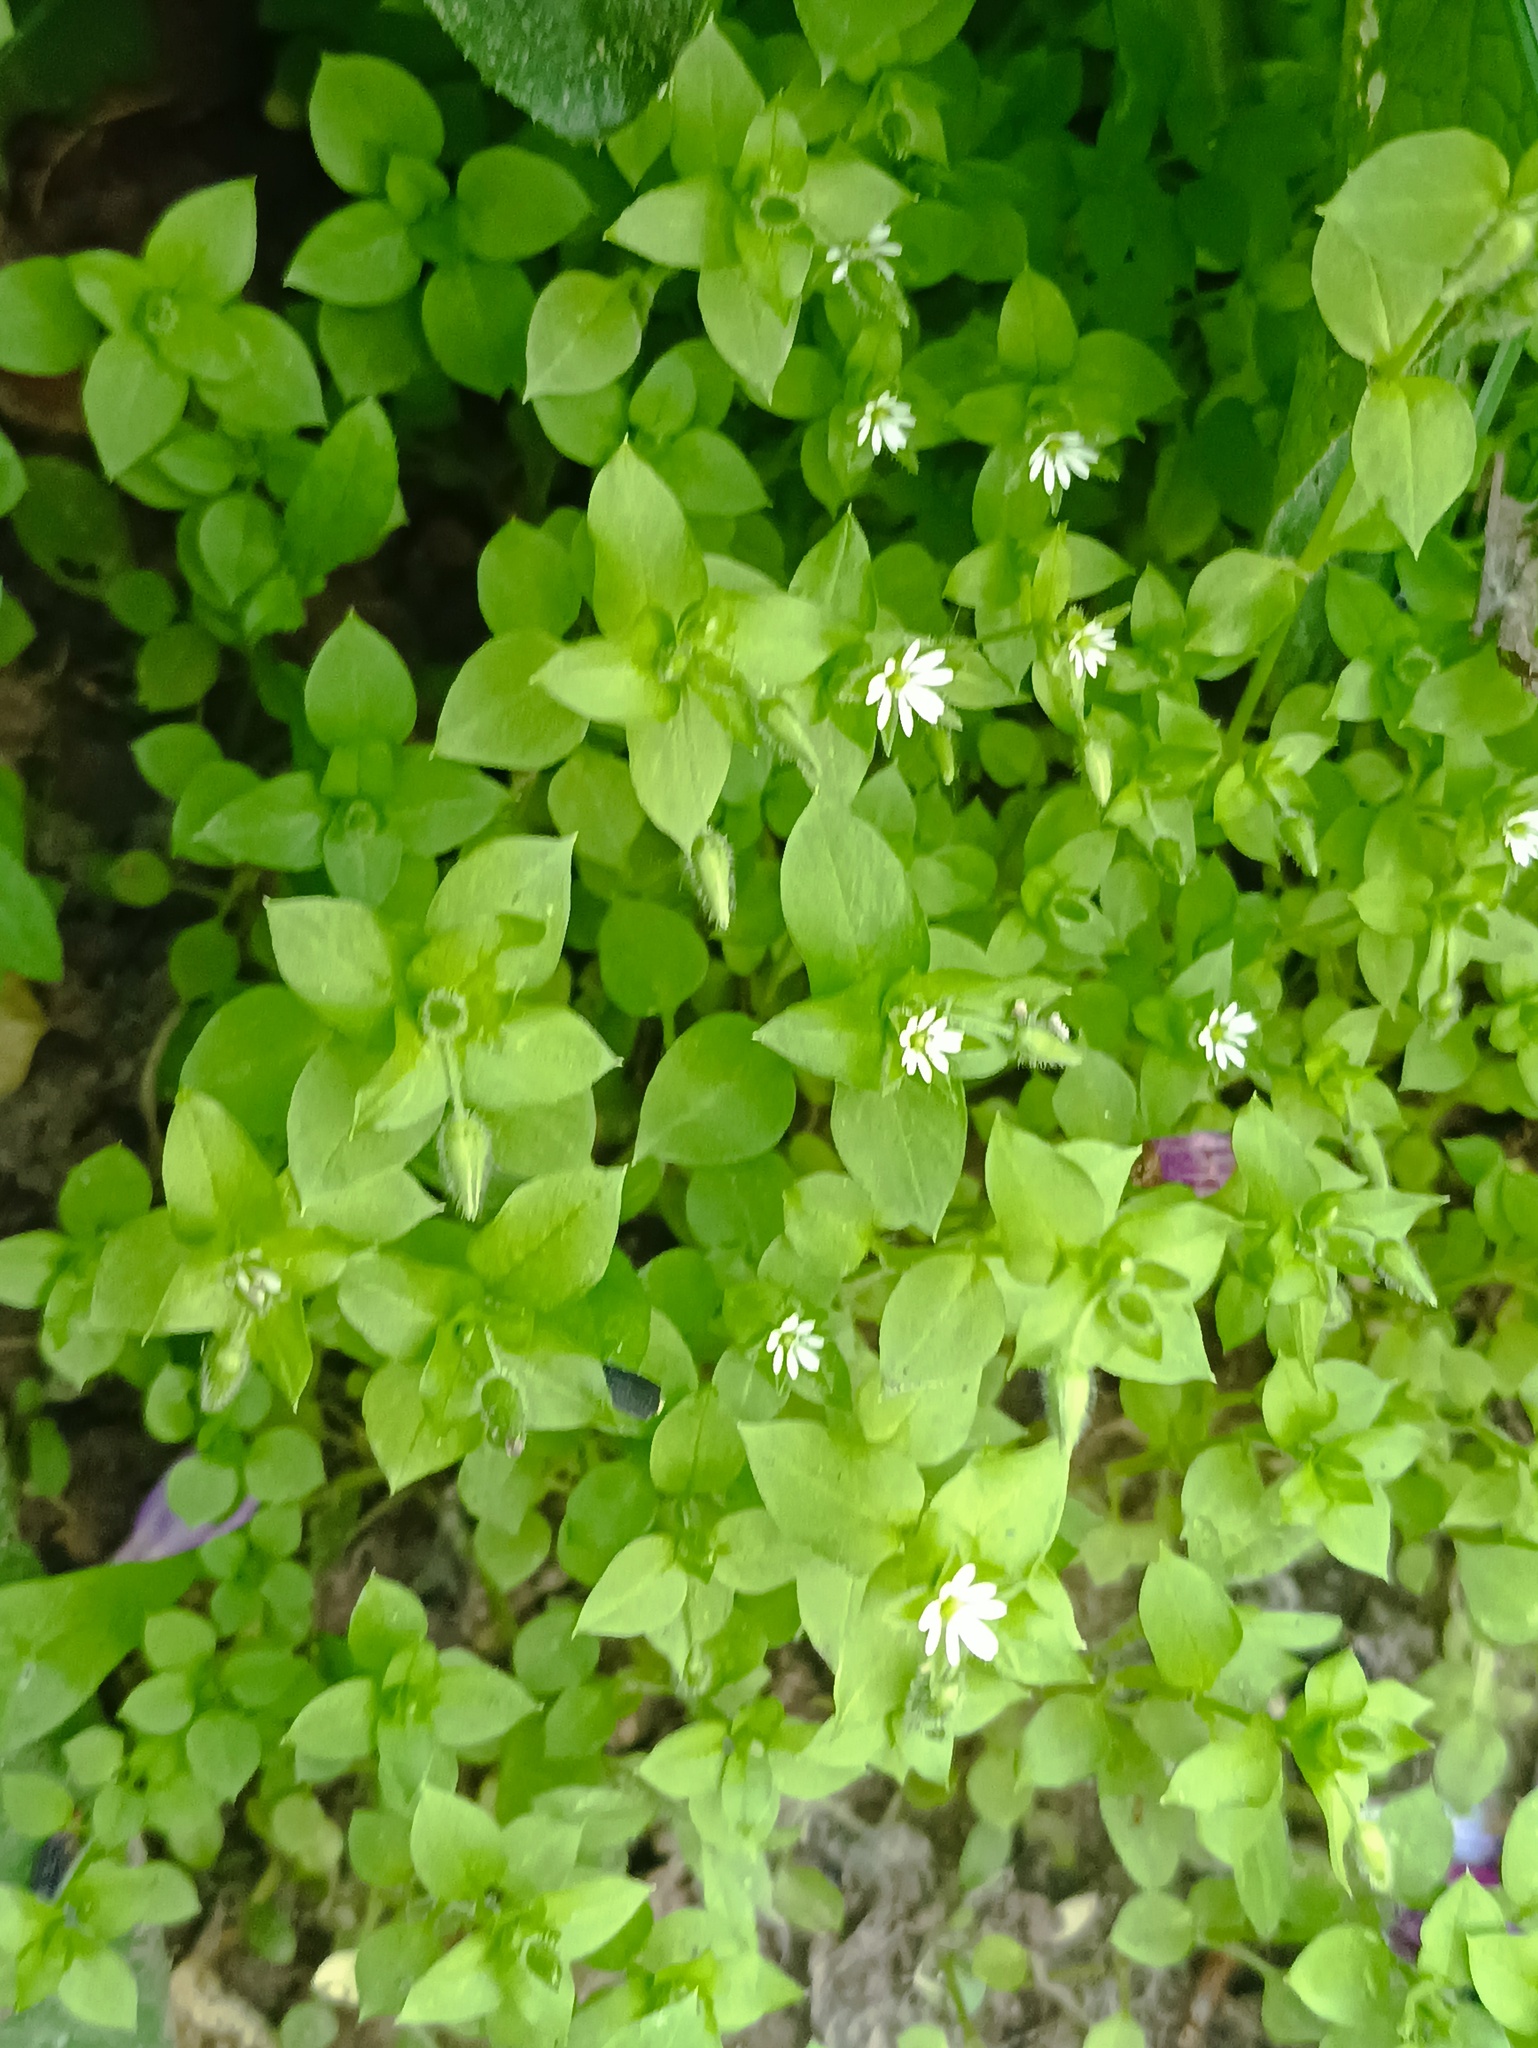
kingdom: Plantae
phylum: Tracheophyta
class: Magnoliopsida
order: Caryophyllales
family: Caryophyllaceae
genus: Stellaria
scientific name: Stellaria media
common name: Common chickweed
